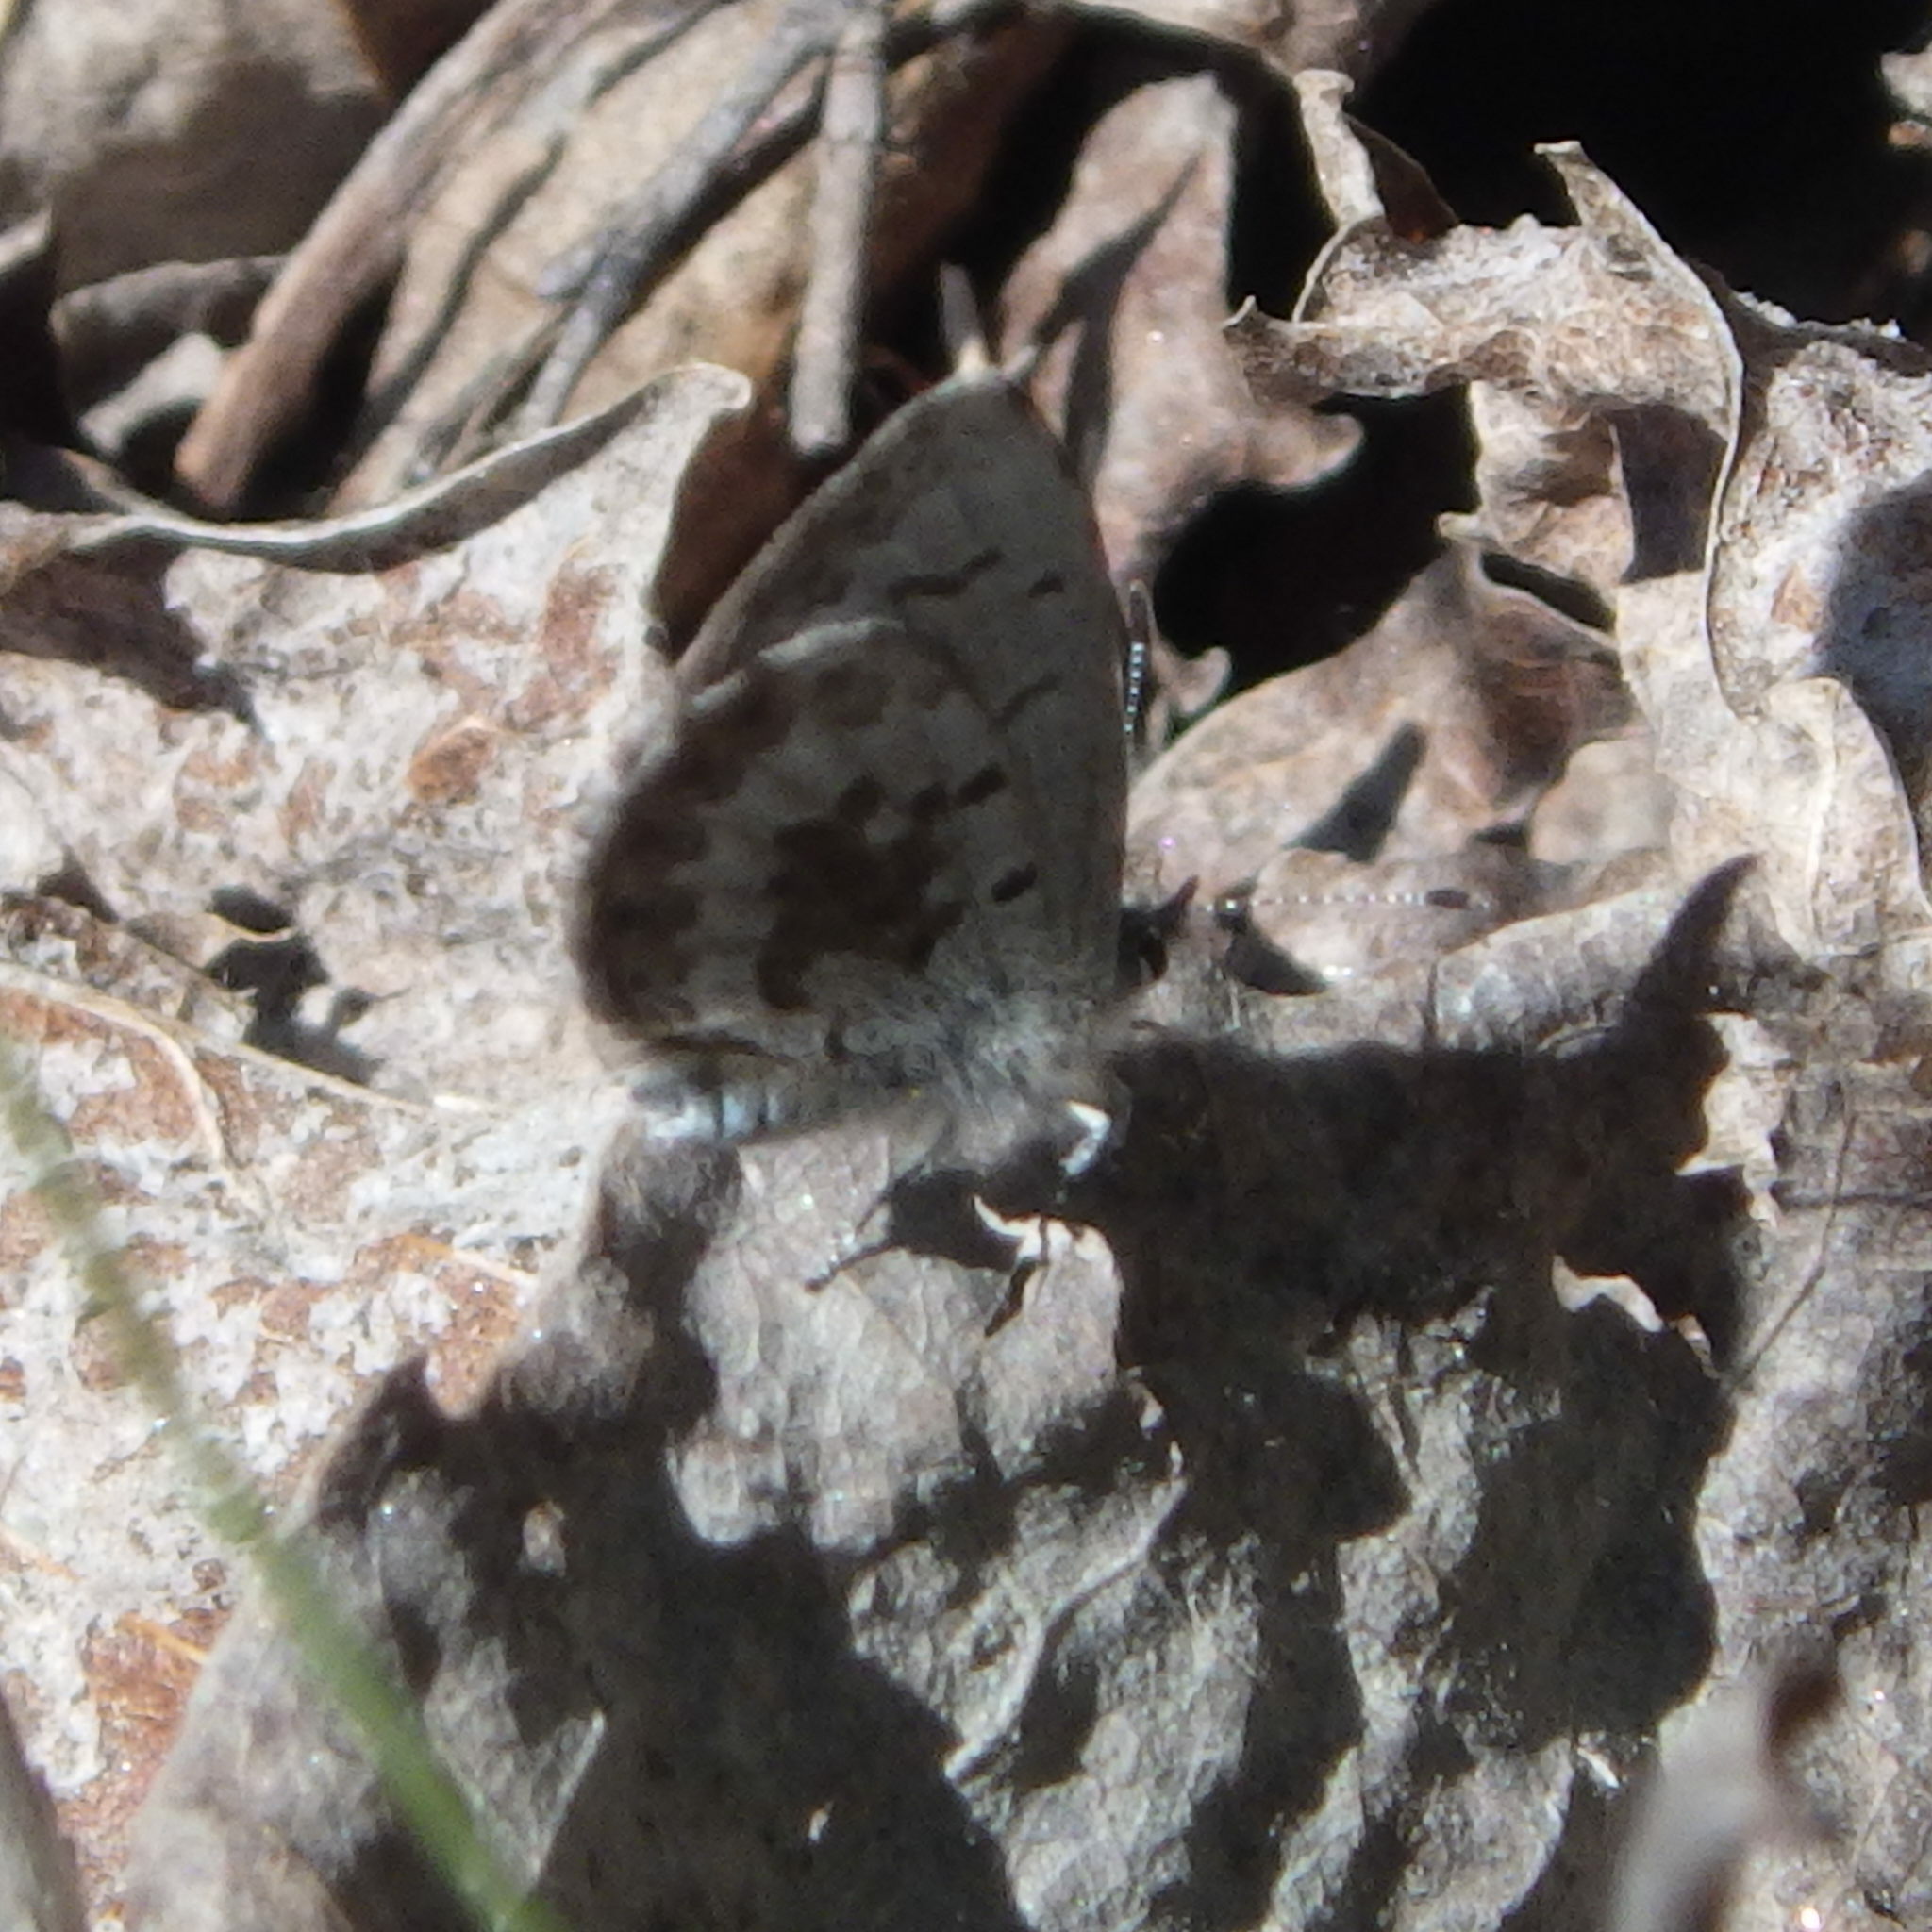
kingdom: Animalia
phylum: Arthropoda
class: Insecta
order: Lepidoptera
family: Lycaenidae
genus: Celastrina
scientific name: Celastrina lucia
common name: Lucia azure
